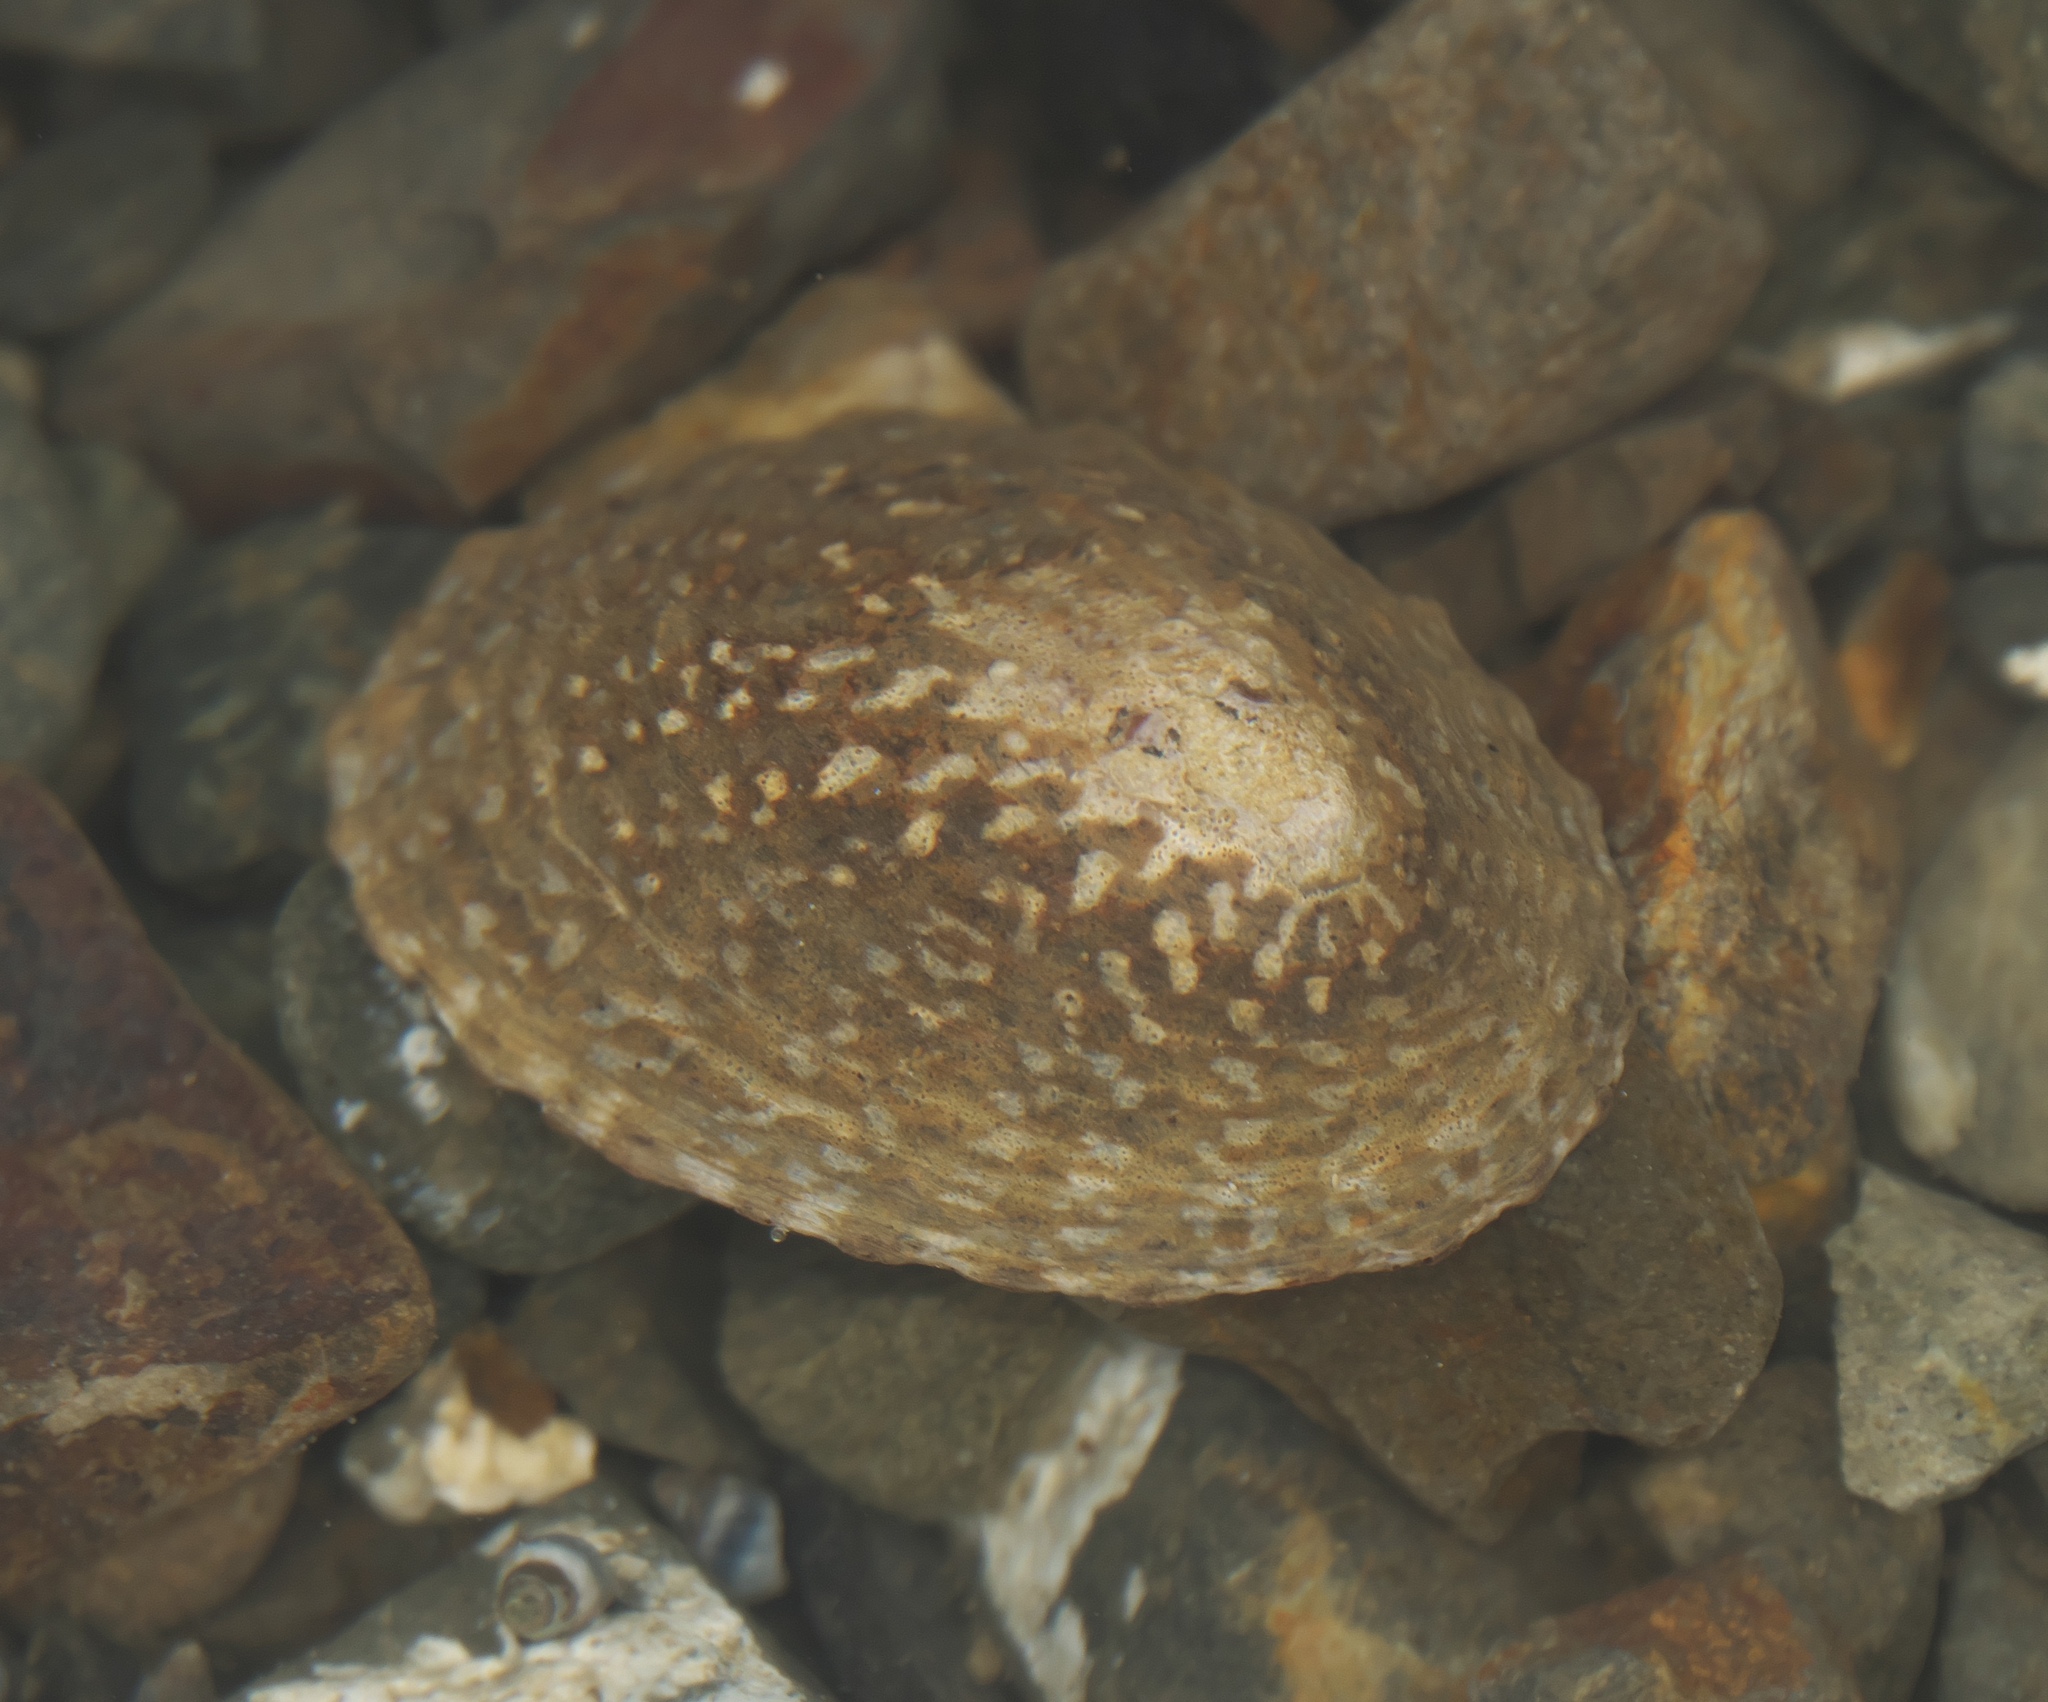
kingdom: Animalia
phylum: Mollusca
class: Gastropoda
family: Nacellidae
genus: Cellana
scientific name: Cellana denticulata
